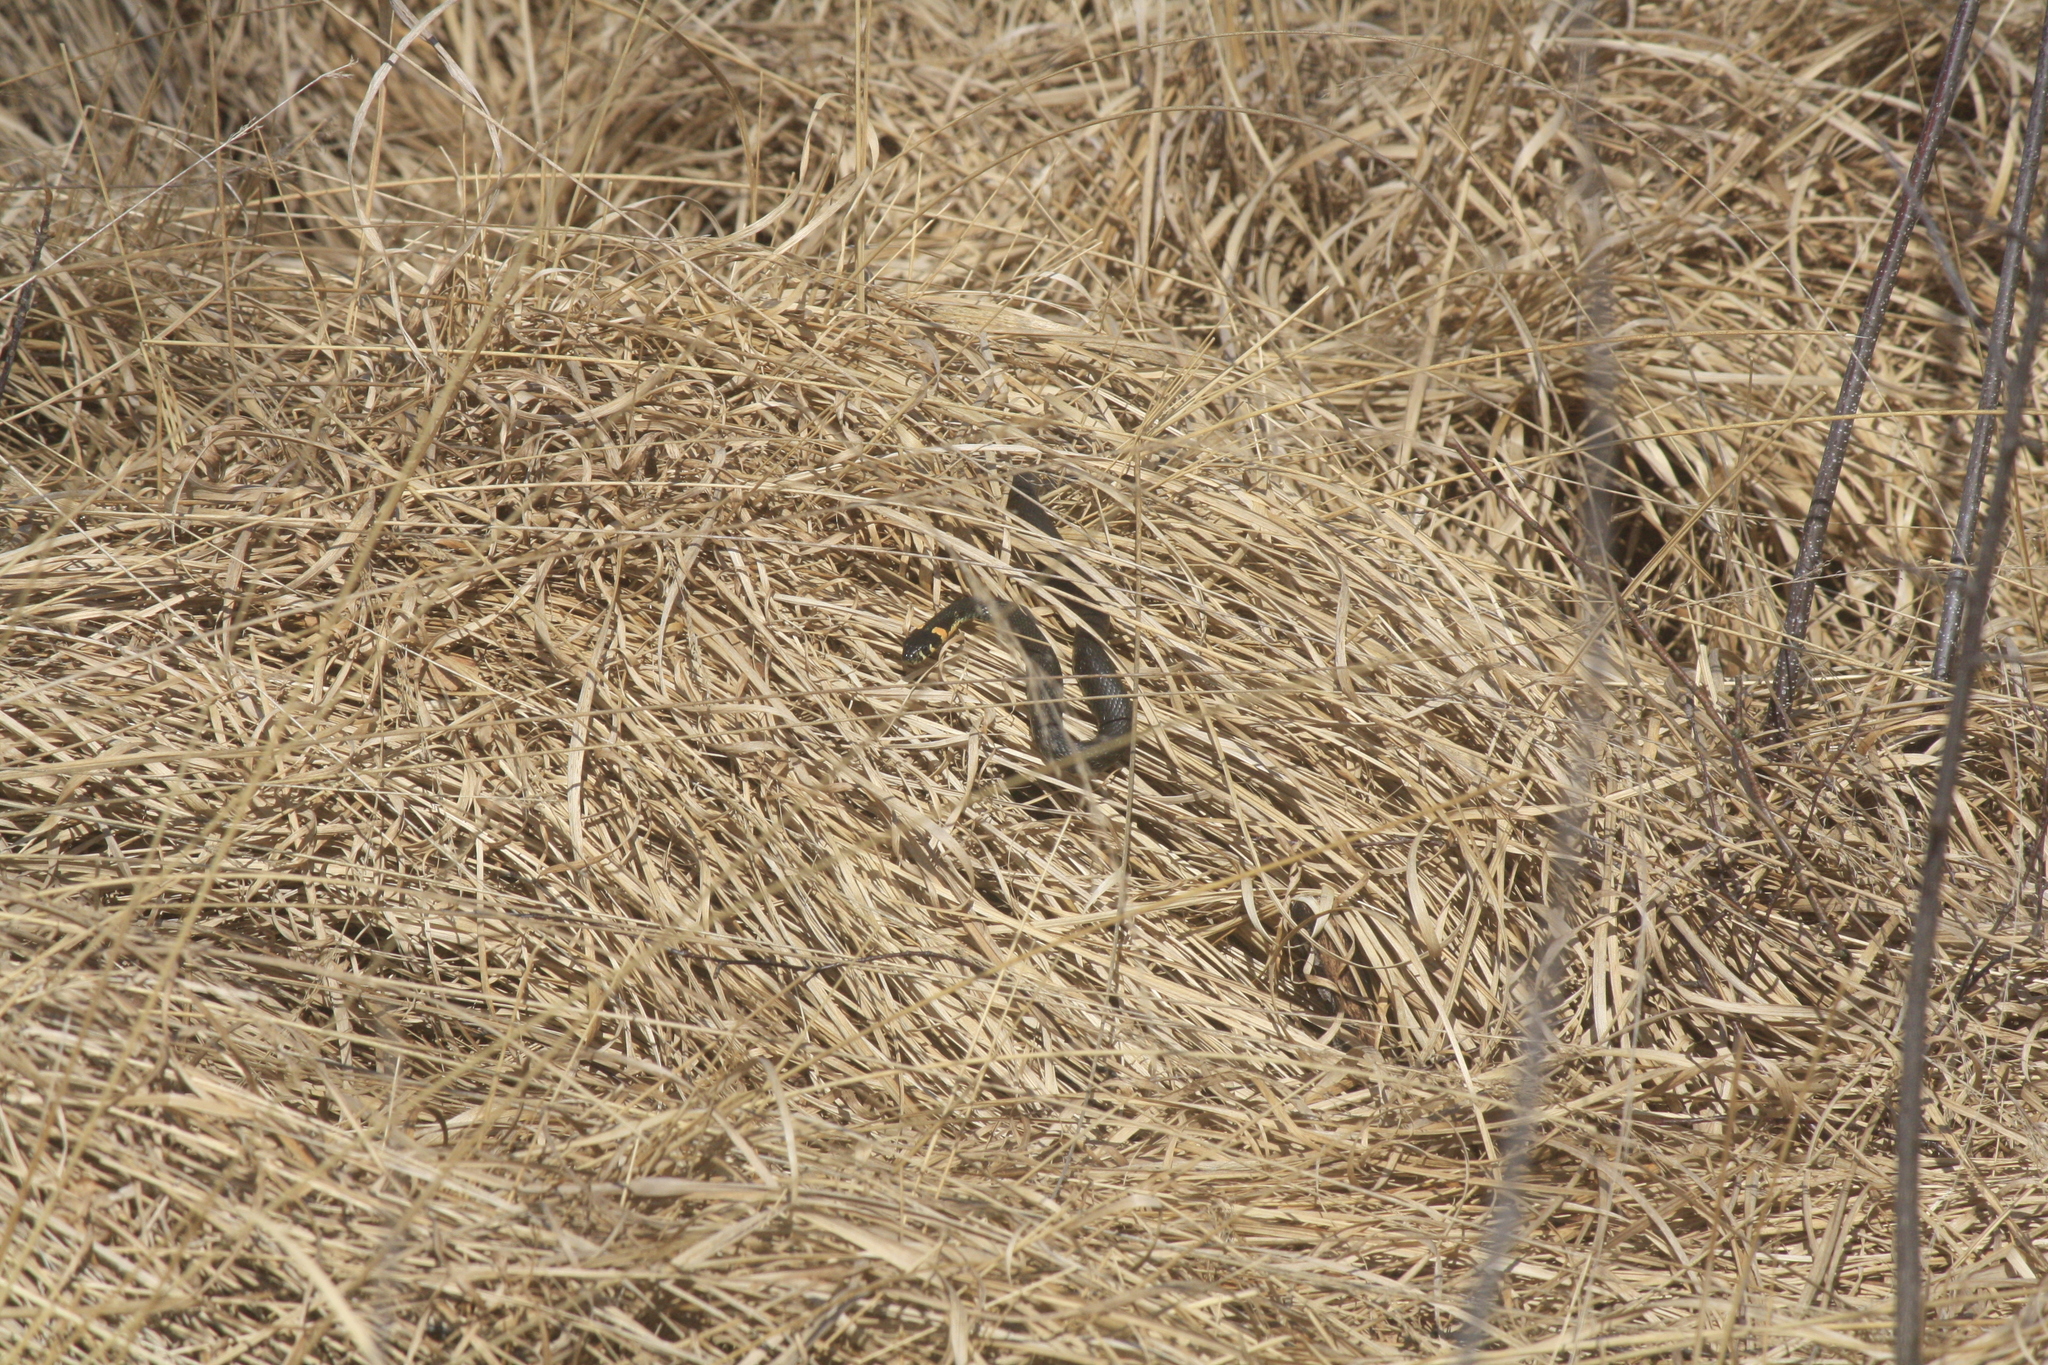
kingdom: Animalia
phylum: Chordata
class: Squamata
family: Colubridae
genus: Natrix
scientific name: Natrix natrix
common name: Grass snake
